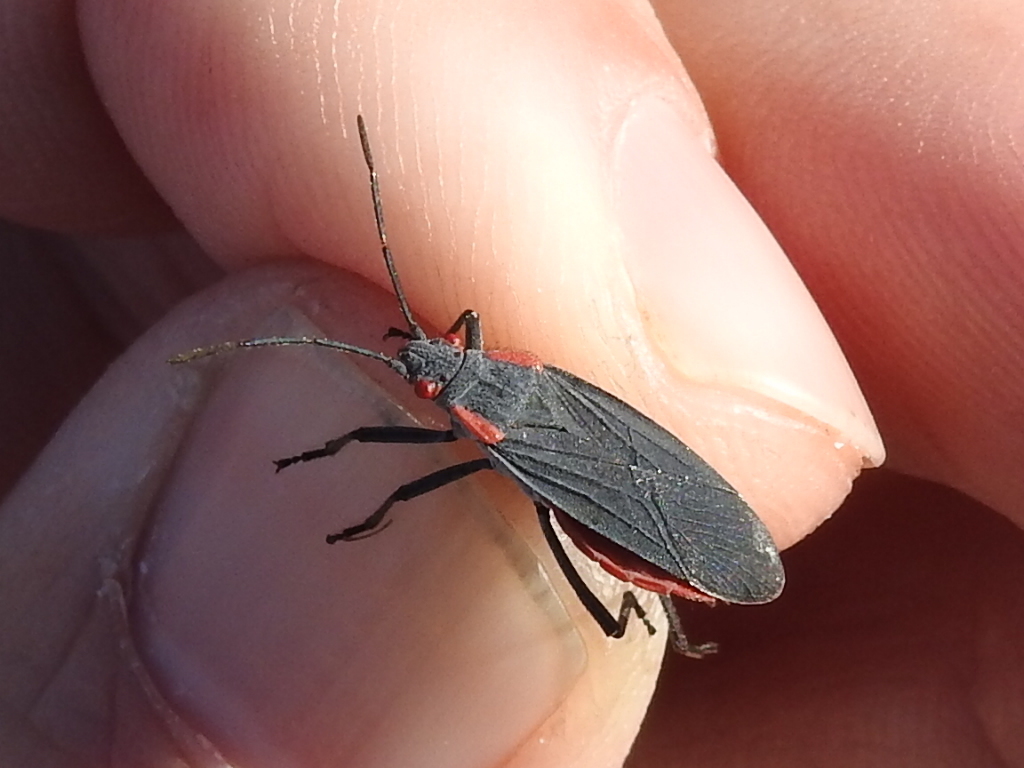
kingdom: Animalia
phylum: Arthropoda
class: Insecta
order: Hemiptera
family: Rhopalidae
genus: Jadera
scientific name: Jadera haematoloma
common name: Red-shouldered bug
